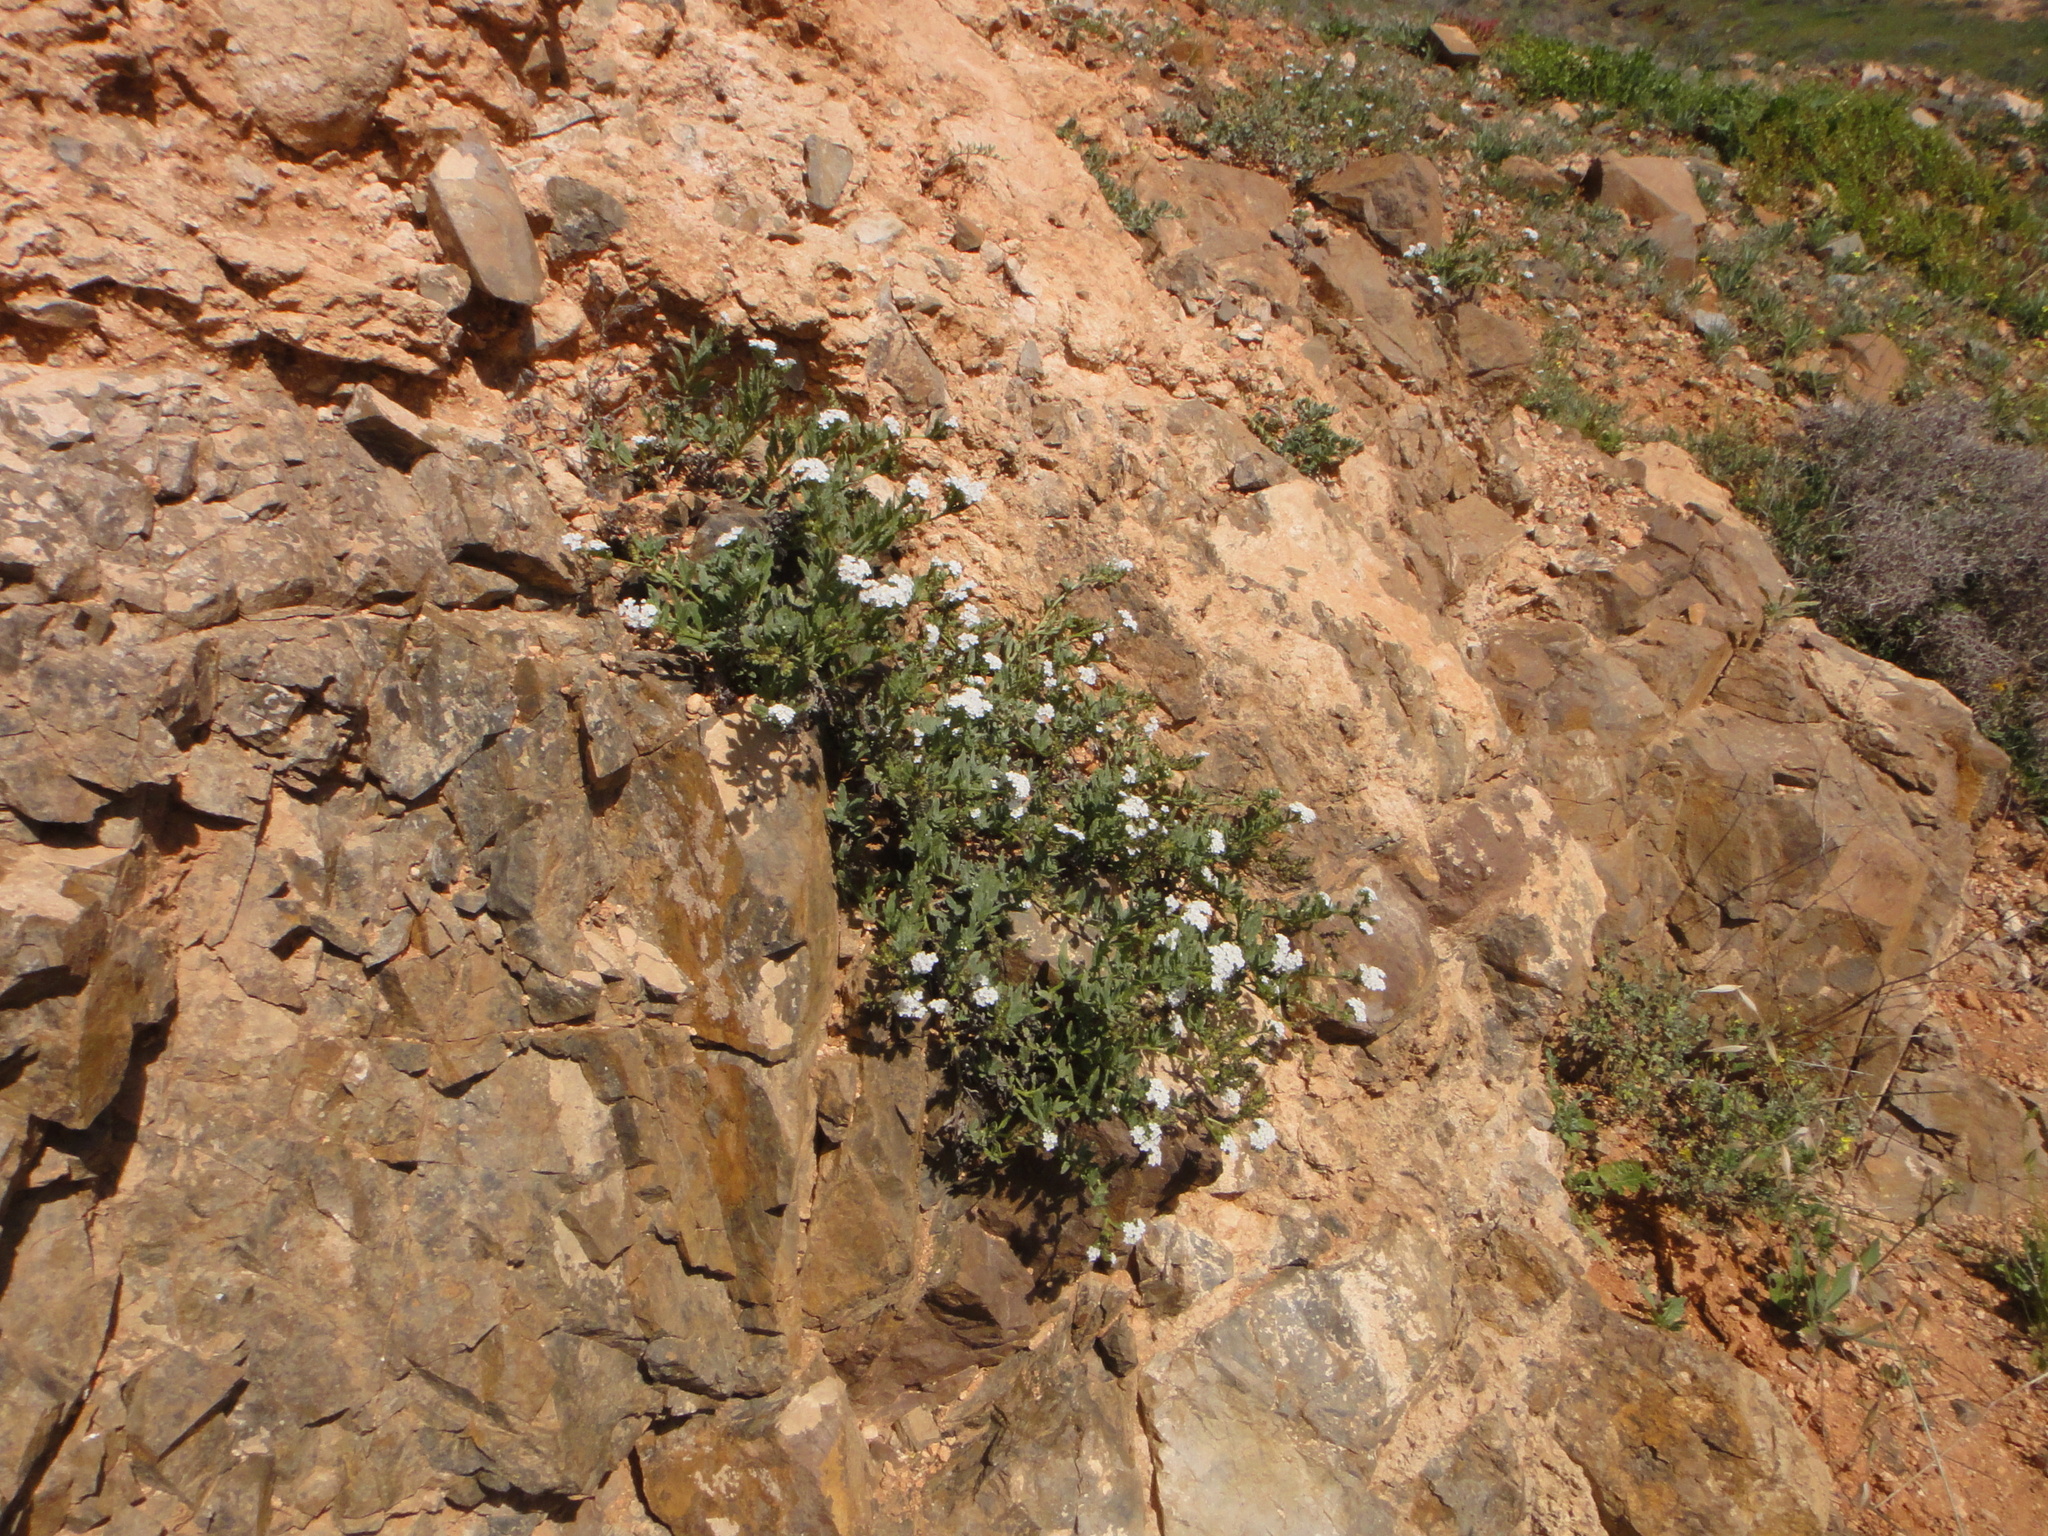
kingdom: Plantae
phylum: Tracheophyta
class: Magnoliopsida
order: Boraginales
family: Heliotropiaceae
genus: Heliotropium
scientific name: Heliotropium ramosissimum
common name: Wavy heliotrope
